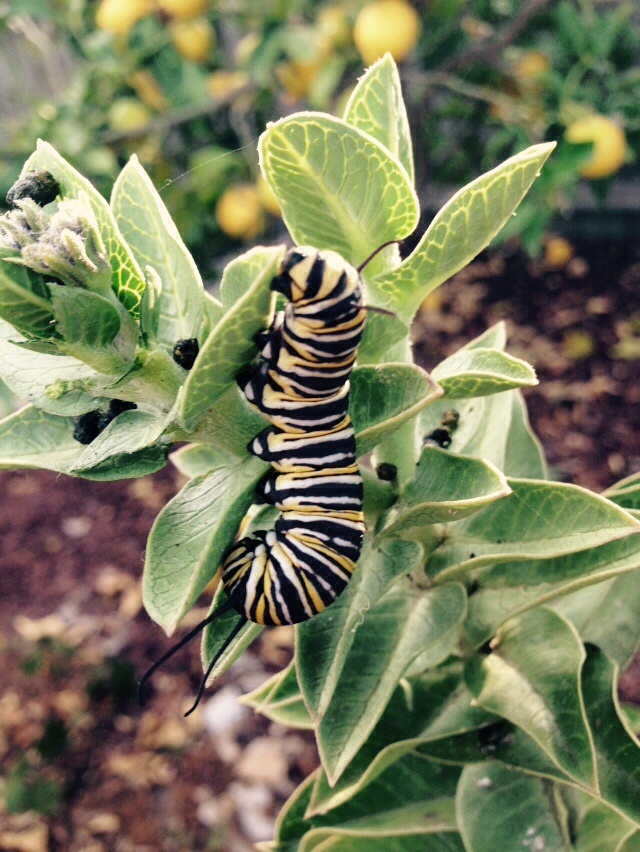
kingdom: Animalia
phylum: Arthropoda
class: Insecta
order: Lepidoptera
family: Nymphalidae
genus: Danaus
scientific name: Danaus plexippus
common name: Monarch
